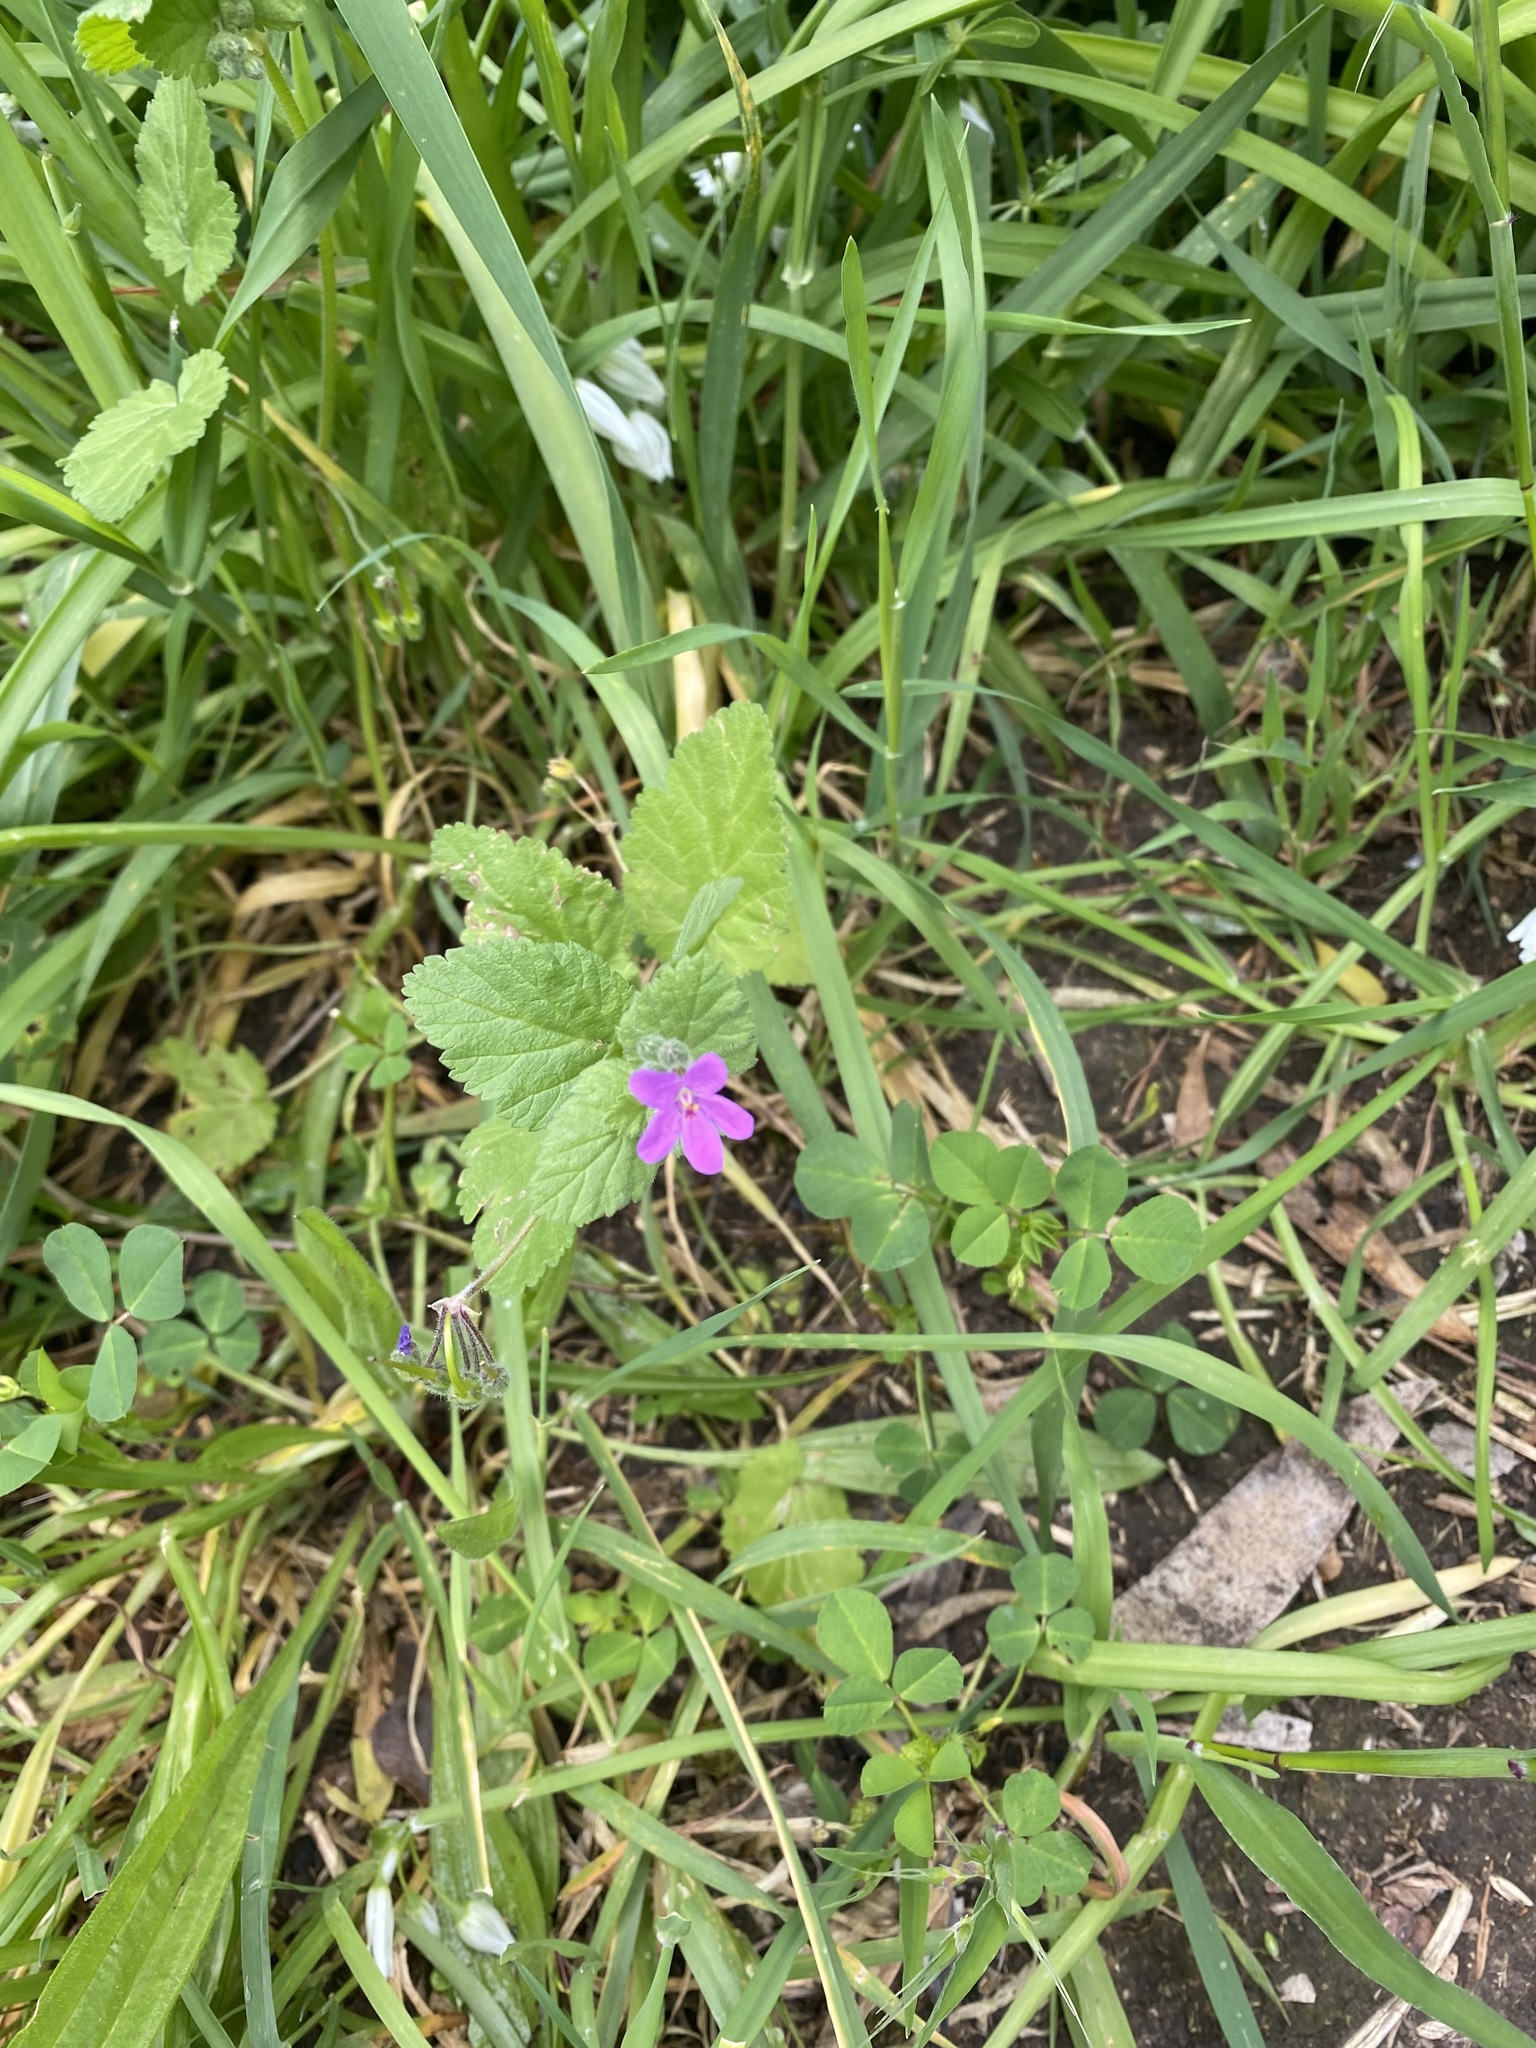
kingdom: Plantae
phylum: Tracheophyta
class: Magnoliopsida
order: Geraniales
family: Geraniaceae
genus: Erodium
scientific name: Erodium malacoides
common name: Soft stork's-bill
